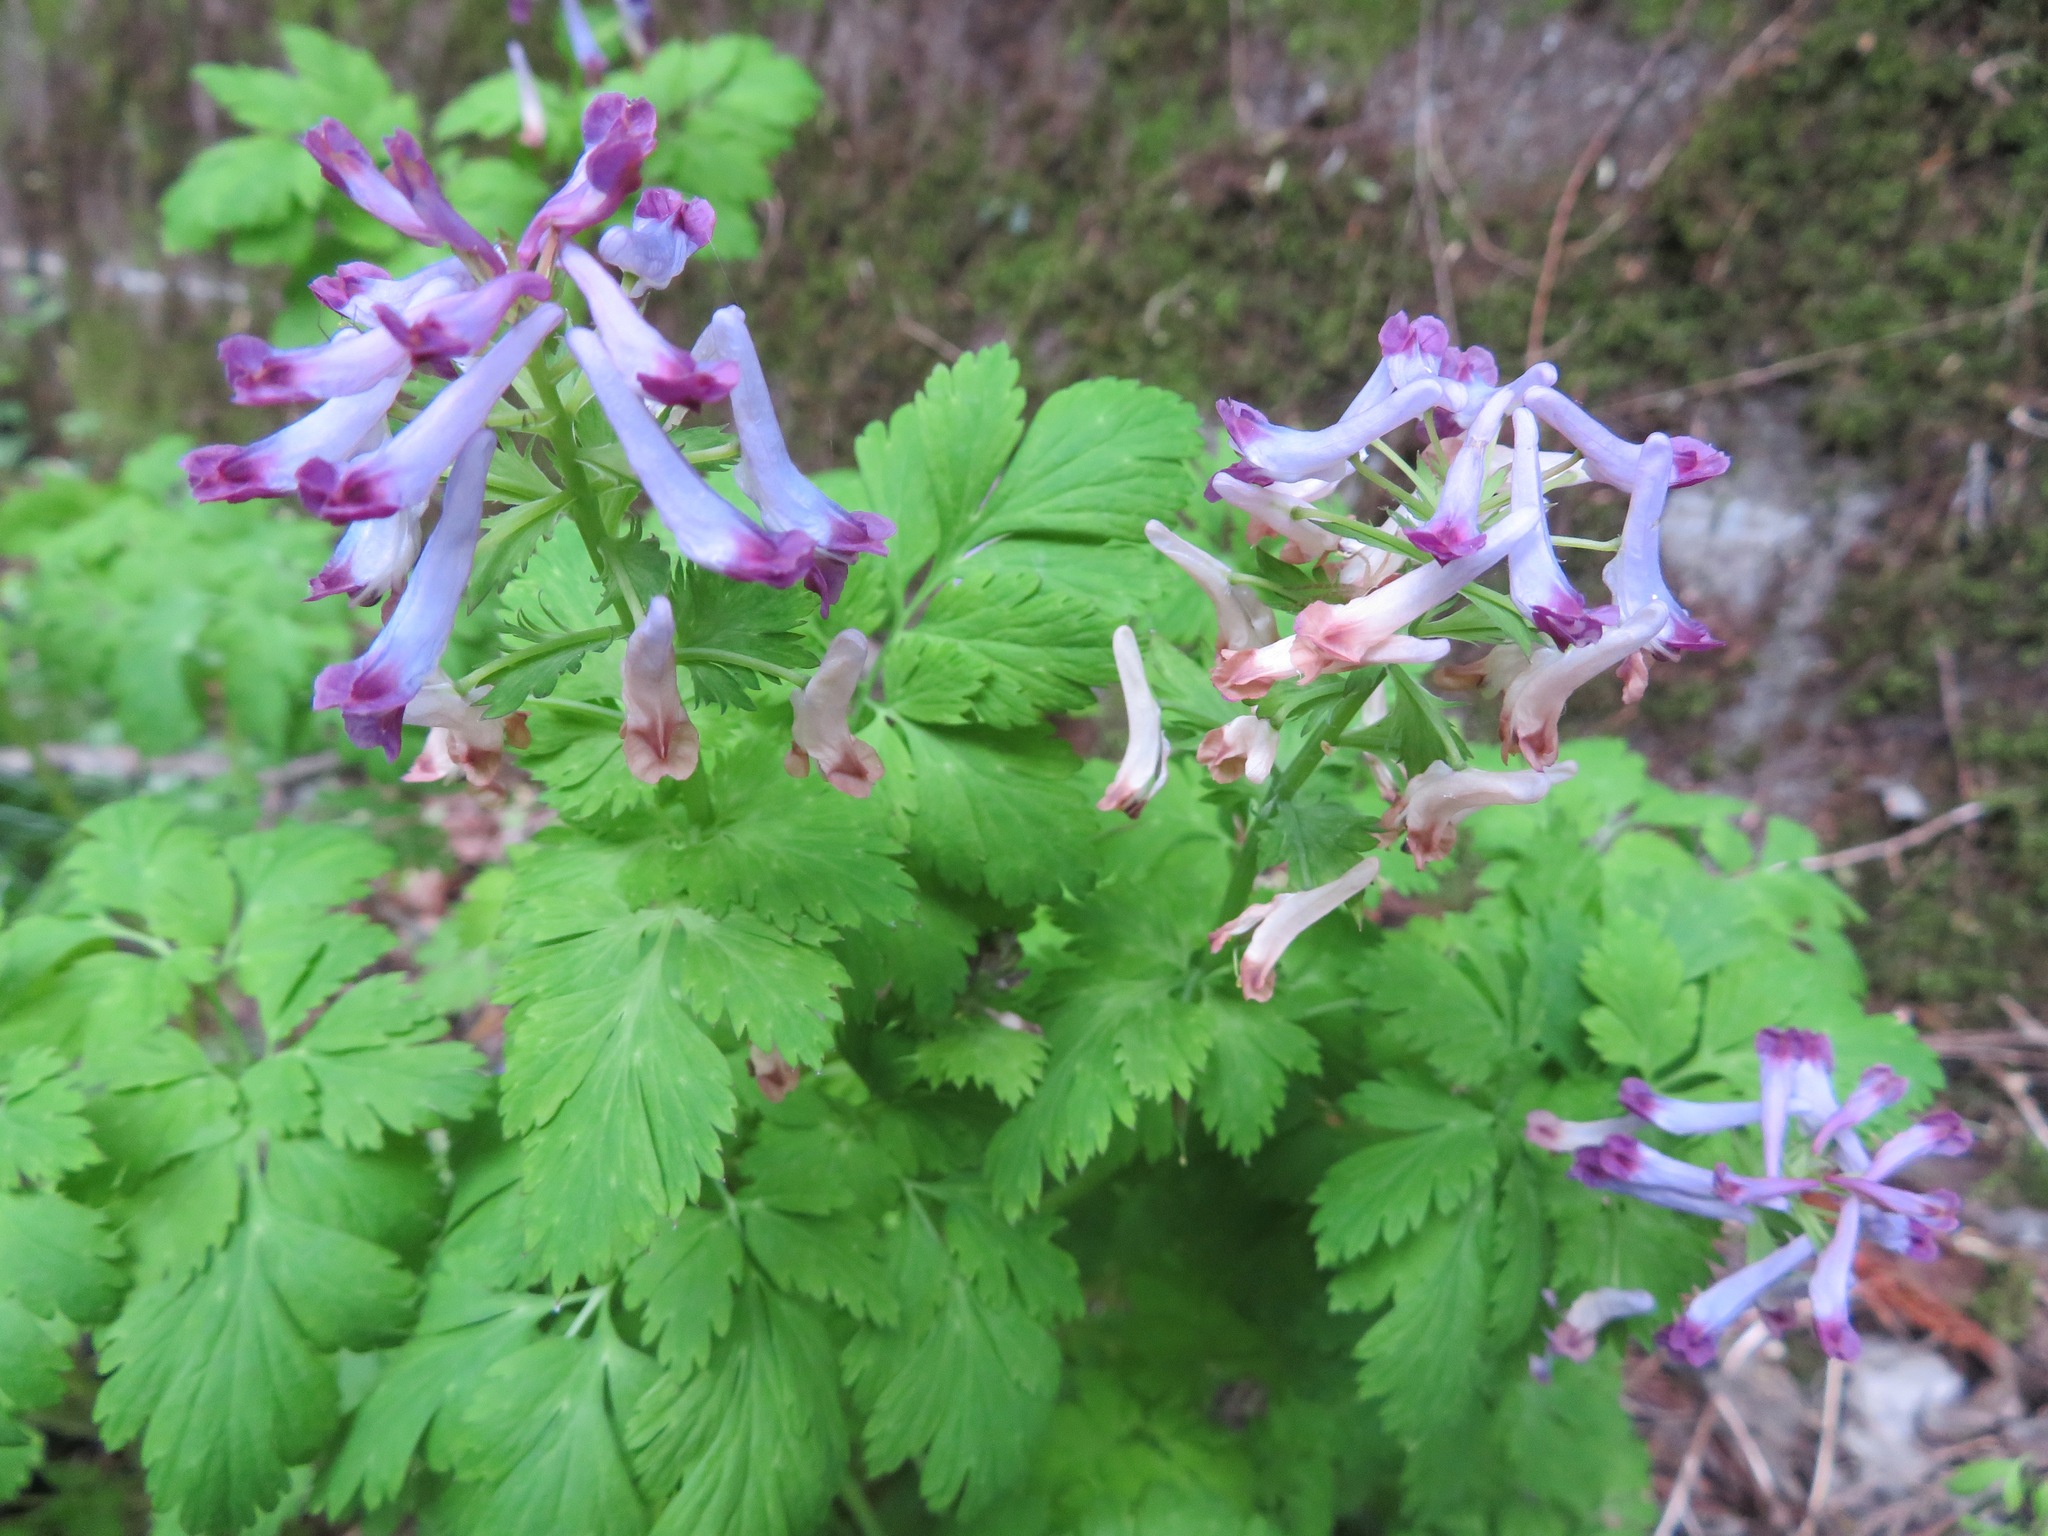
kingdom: Plantae
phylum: Tracheophyta
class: Magnoliopsida
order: Ranunculales
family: Papaveraceae
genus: Corydalis
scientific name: Corydalis incisa
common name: Incised fumewort
